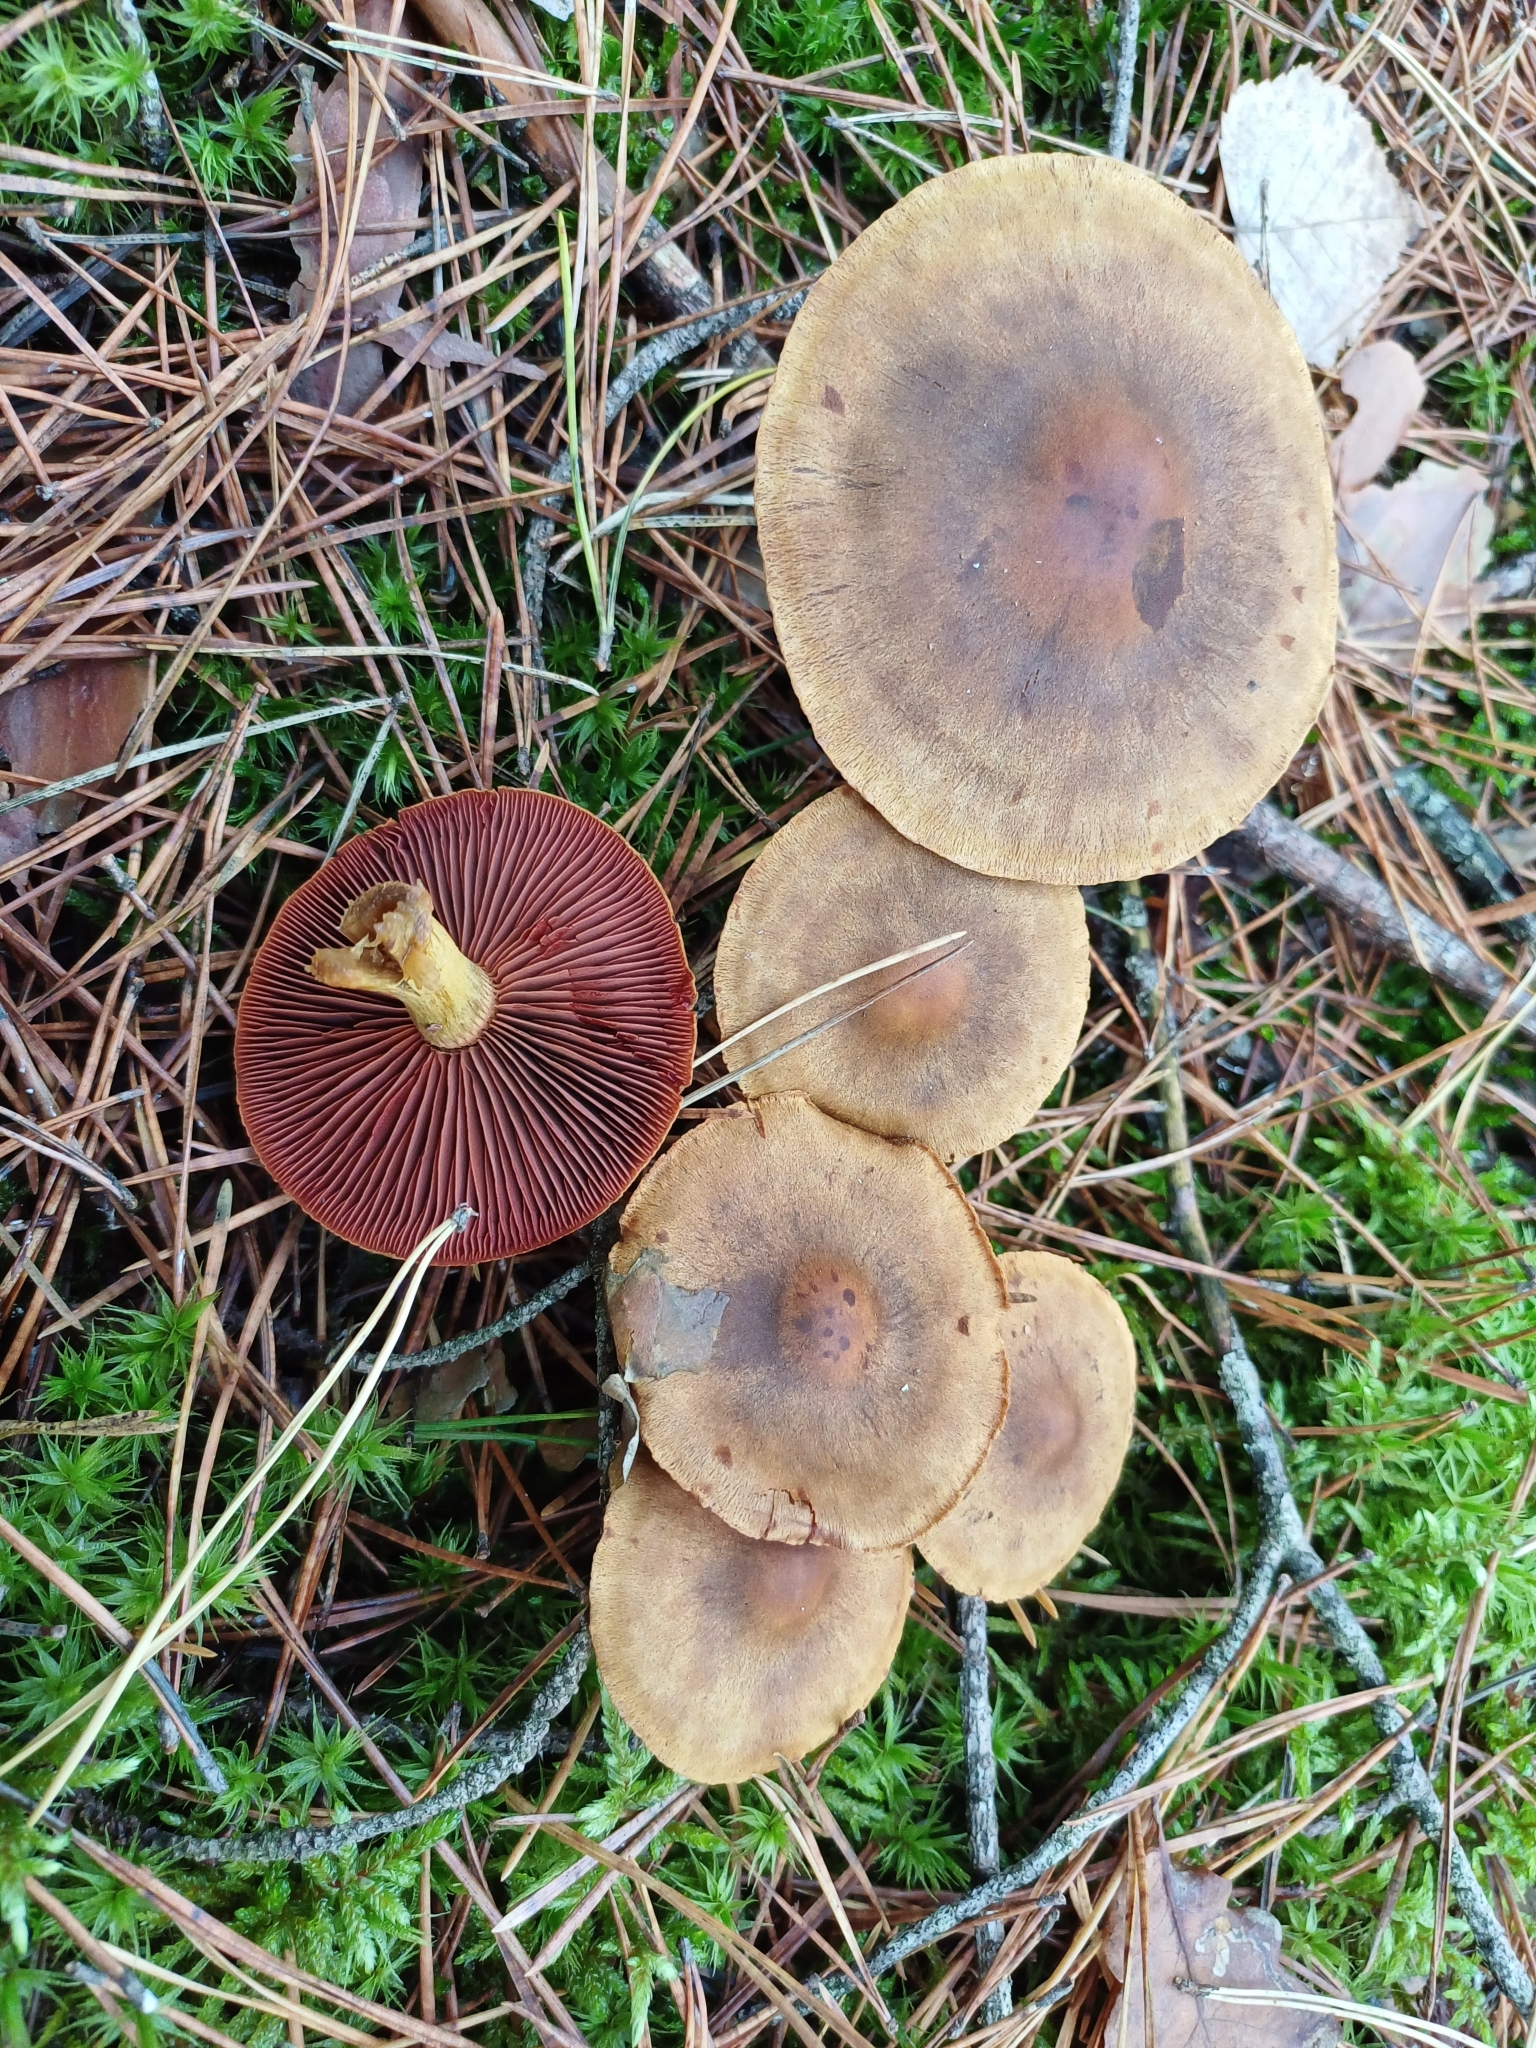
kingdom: Fungi
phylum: Basidiomycota
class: Agaricomycetes
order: Agaricales
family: Cortinariaceae
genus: Cortinarius
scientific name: Cortinarius semisanguineus
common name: Surprise webcap
